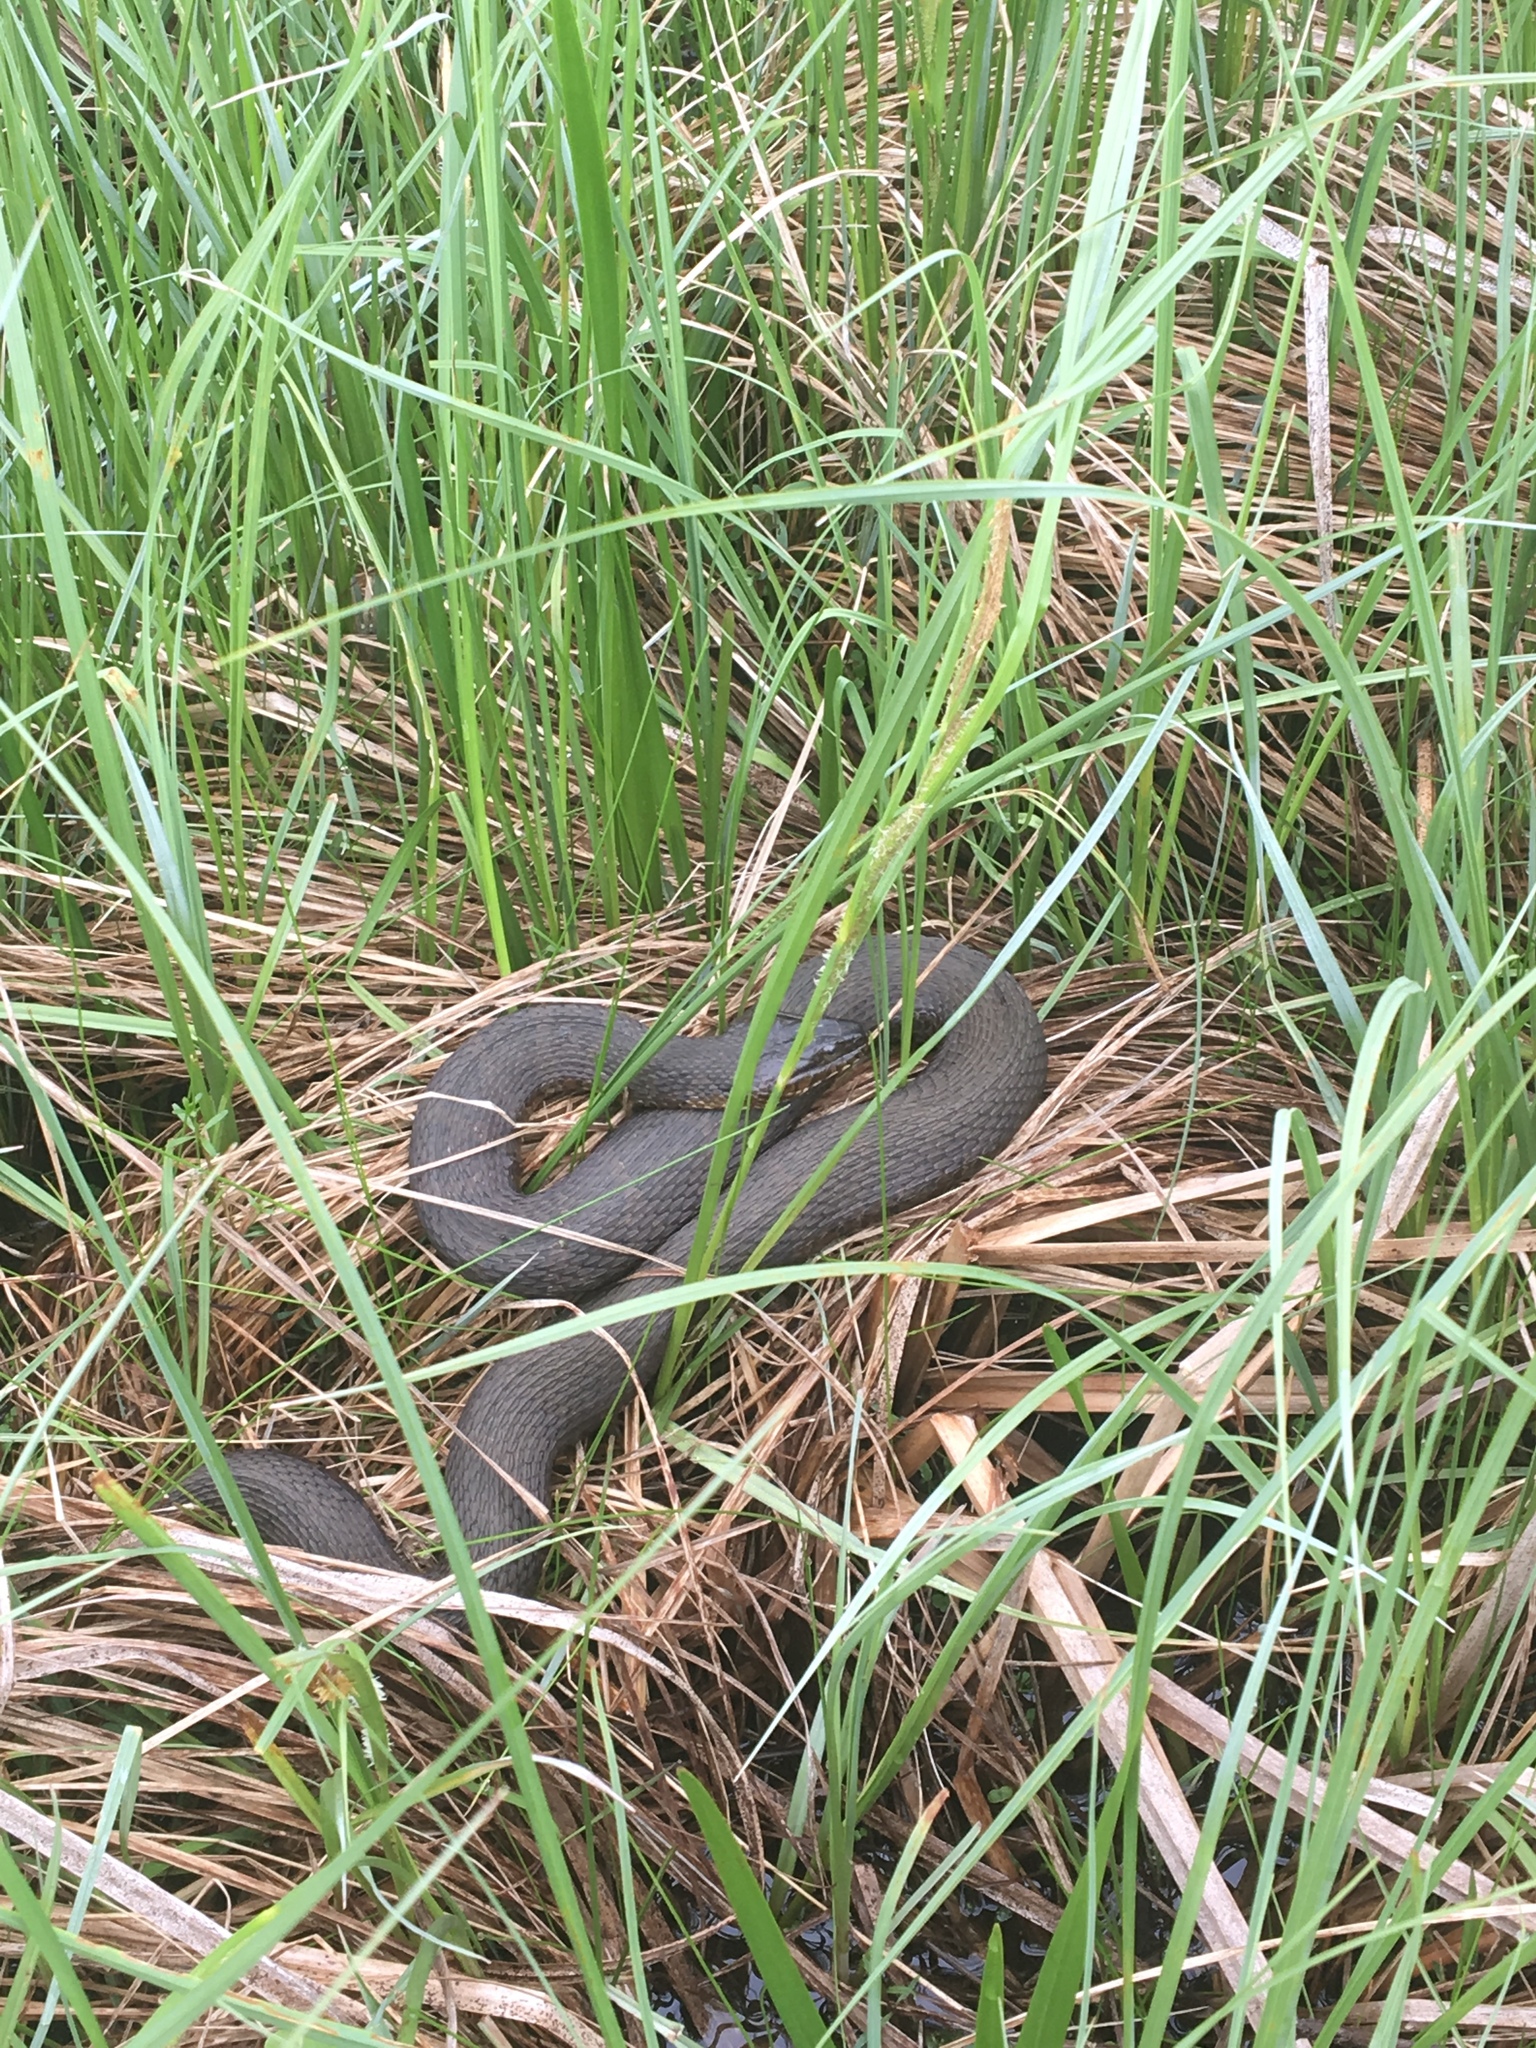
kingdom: Animalia
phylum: Chordata
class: Squamata
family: Colubridae
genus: Nerodia
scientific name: Nerodia sipedon
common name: Northern water snake
